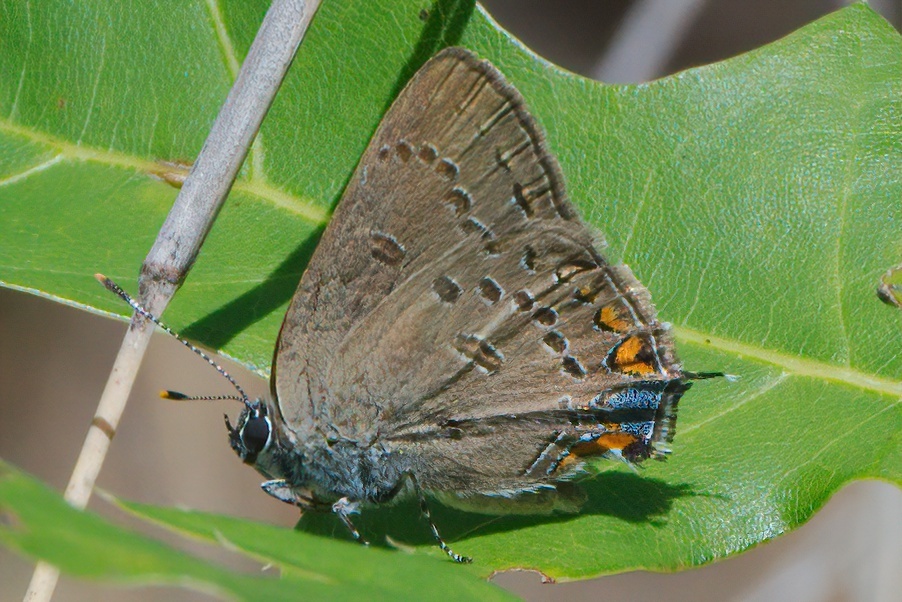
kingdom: Animalia
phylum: Arthropoda
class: Insecta
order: Lepidoptera
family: Lycaenidae
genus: Satyrium
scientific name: Satyrium edwardsii
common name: Edwards' hairstreak
